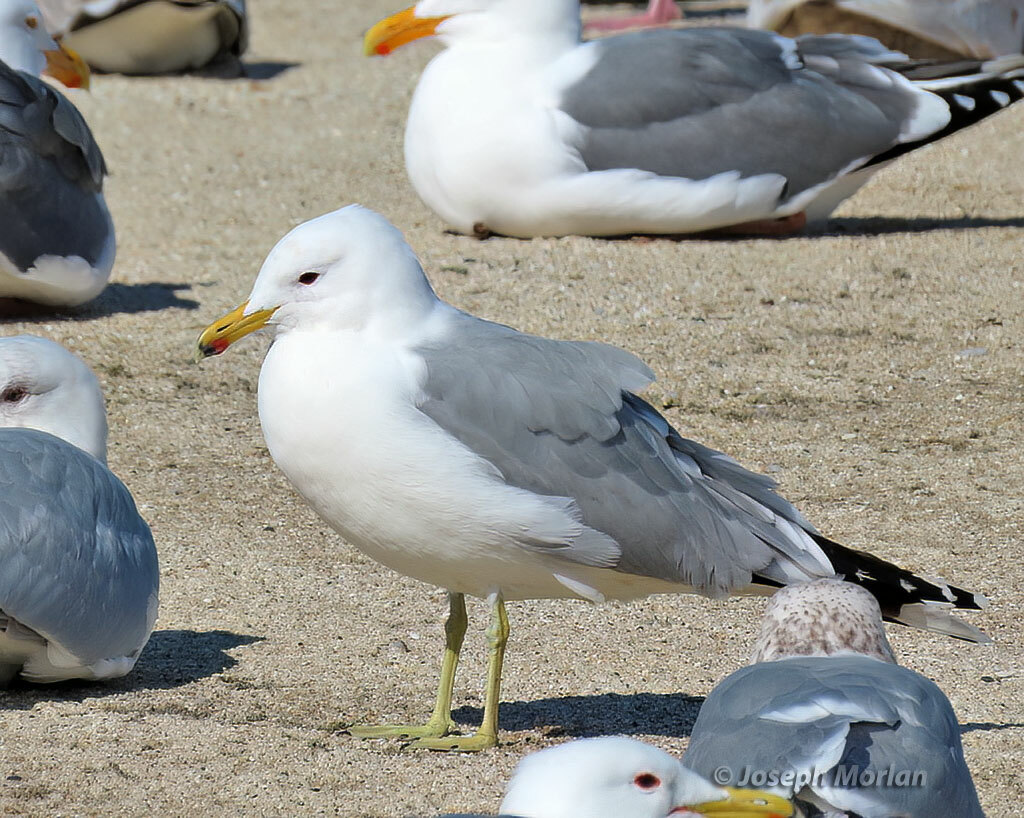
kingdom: Animalia
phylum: Chordata
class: Aves
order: Charadriiformes
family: Laridae
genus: Larus
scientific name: Larus californicus
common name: California gull
